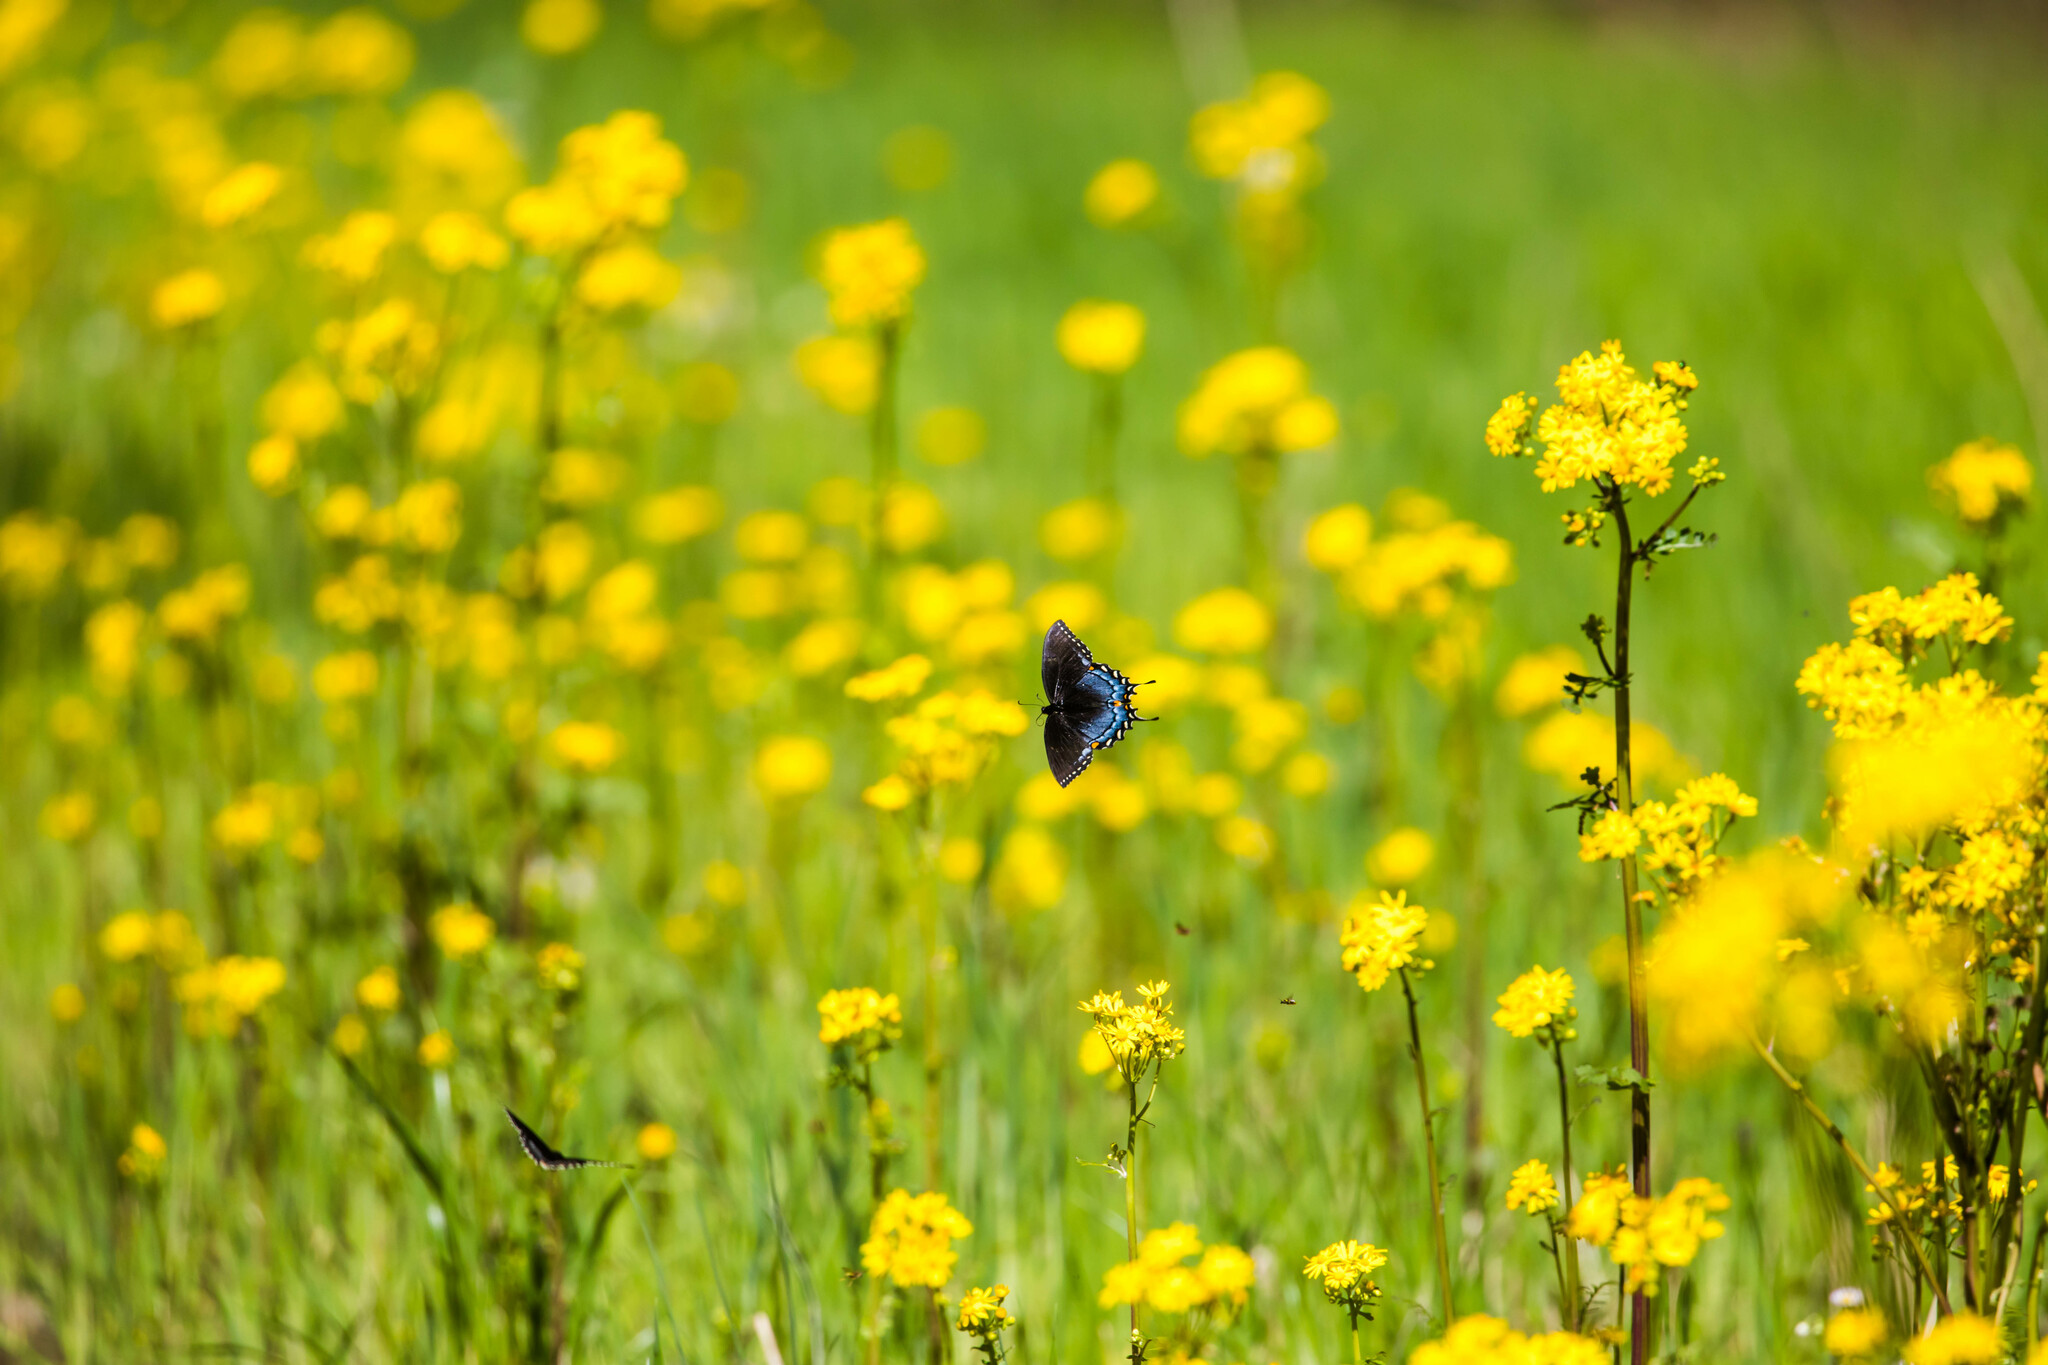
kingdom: Animalia
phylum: Arthropoda
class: Insecta
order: Lepidoptera
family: Papilionidae
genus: Papilio
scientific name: Papilio glaucus
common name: Tiger swallowtail
